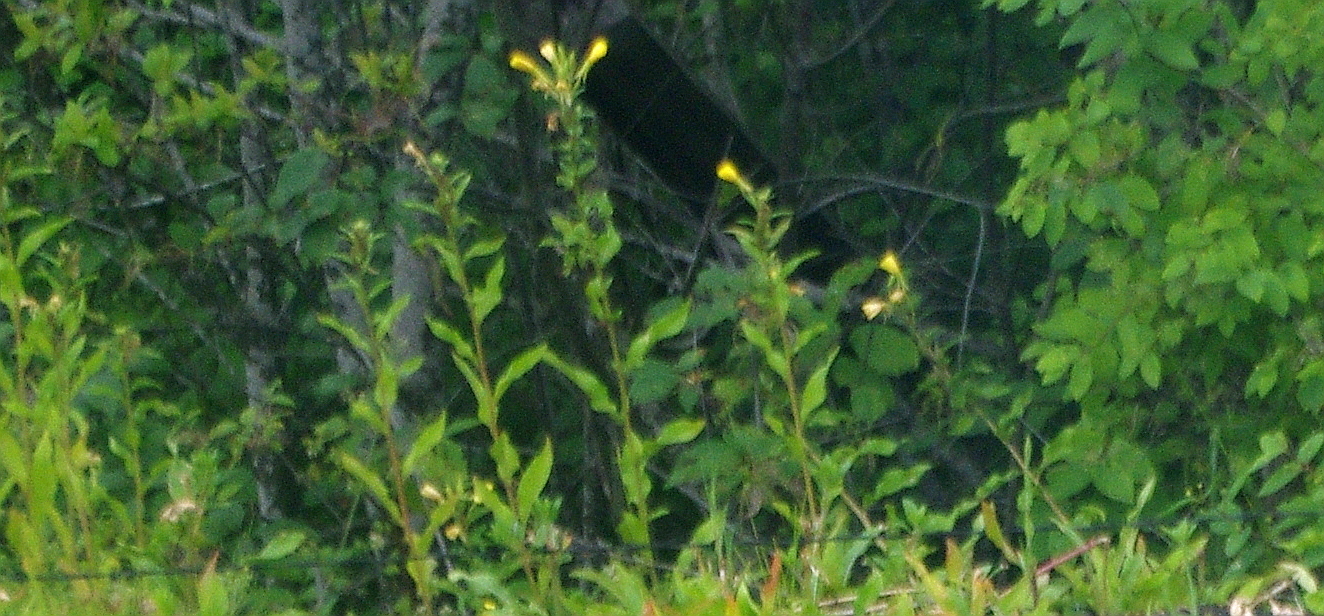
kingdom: Plantae
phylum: Tracheophyta
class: Magnoliopsida
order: Myrtales
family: Onagraceae
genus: Oenothera
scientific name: Oenothera
